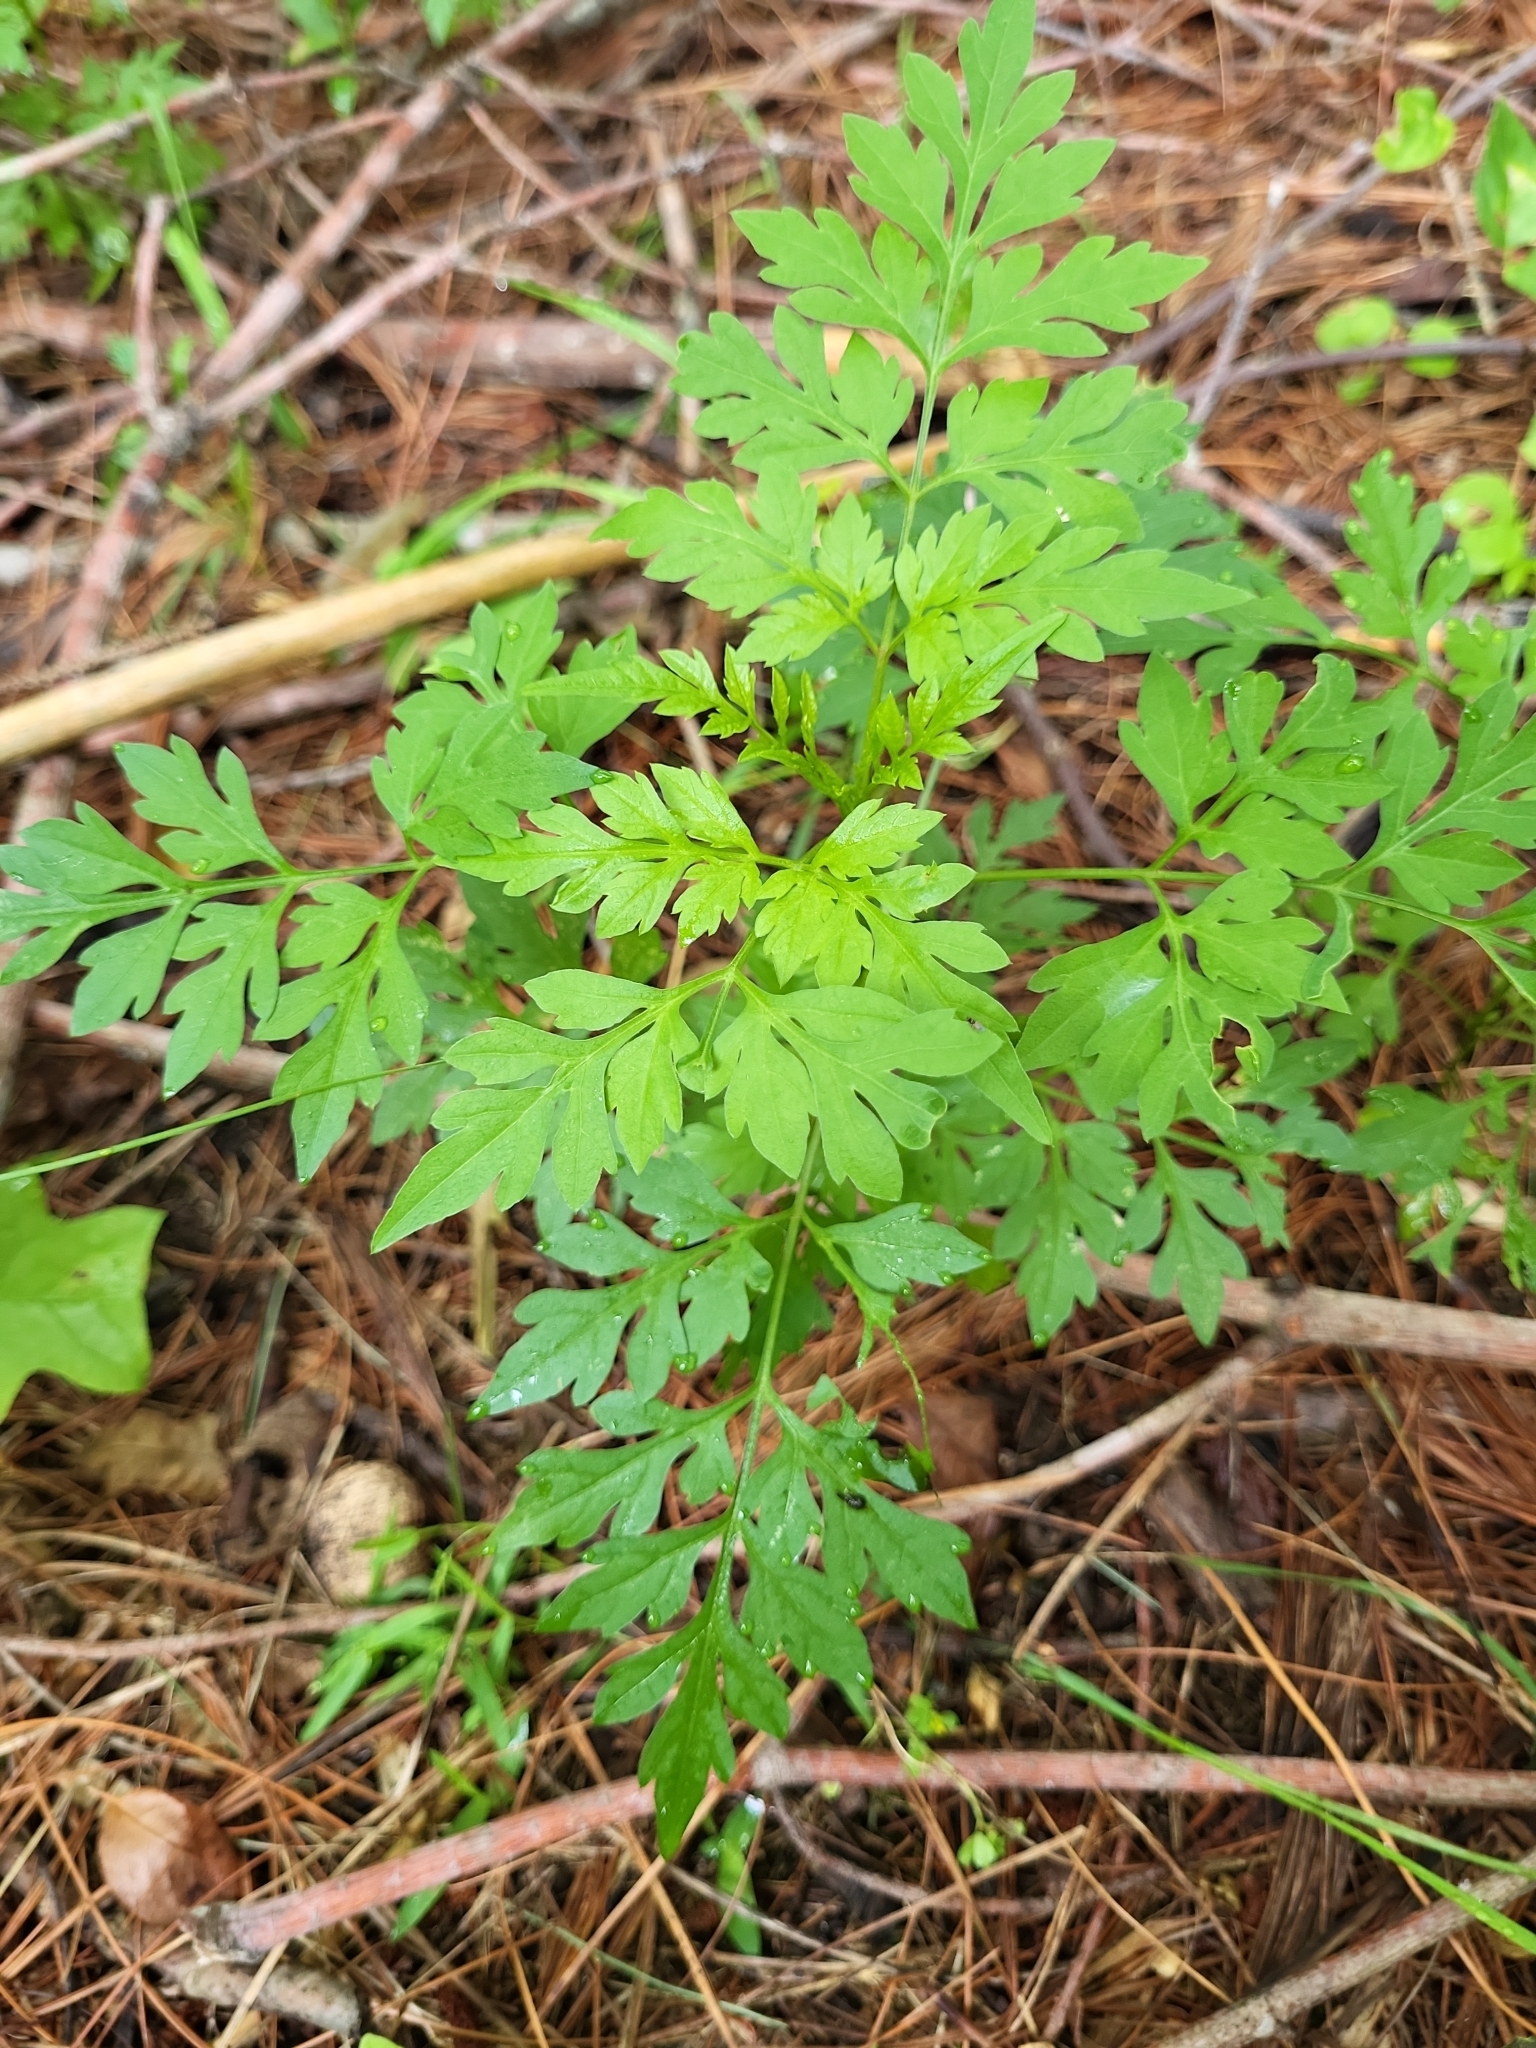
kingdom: Plantae
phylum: Tracheophyta
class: Magnoliopsida
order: Asterales
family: Asteraceae
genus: Bidens
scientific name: Bidens bipinnata
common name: Spanish-needles
